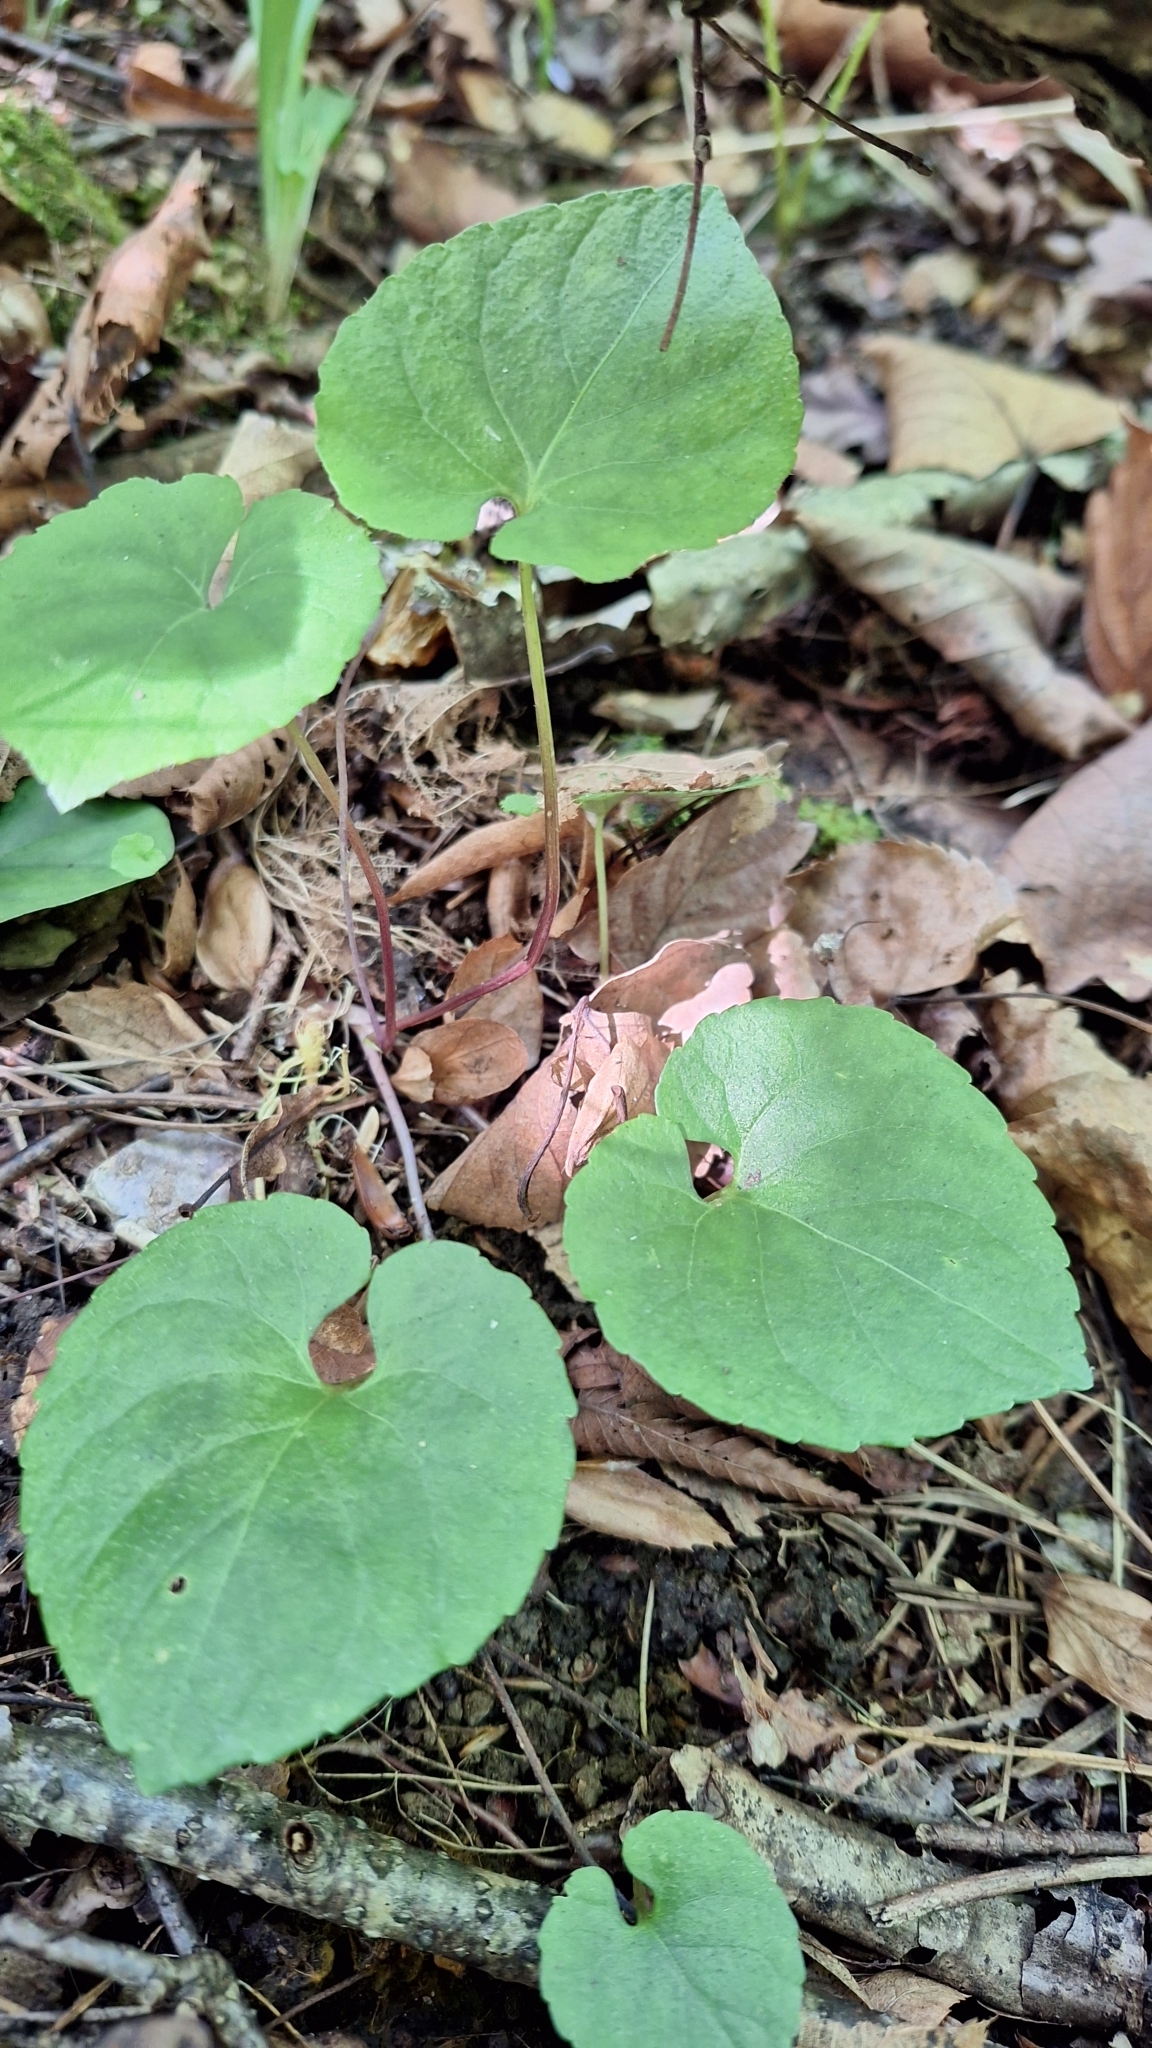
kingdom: Plantae
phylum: Tracheophyta
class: Magnoliopsida
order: Malpighiales
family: Violaceae
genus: Viola
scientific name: Viola selkirkii
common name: Selkirk's violet
